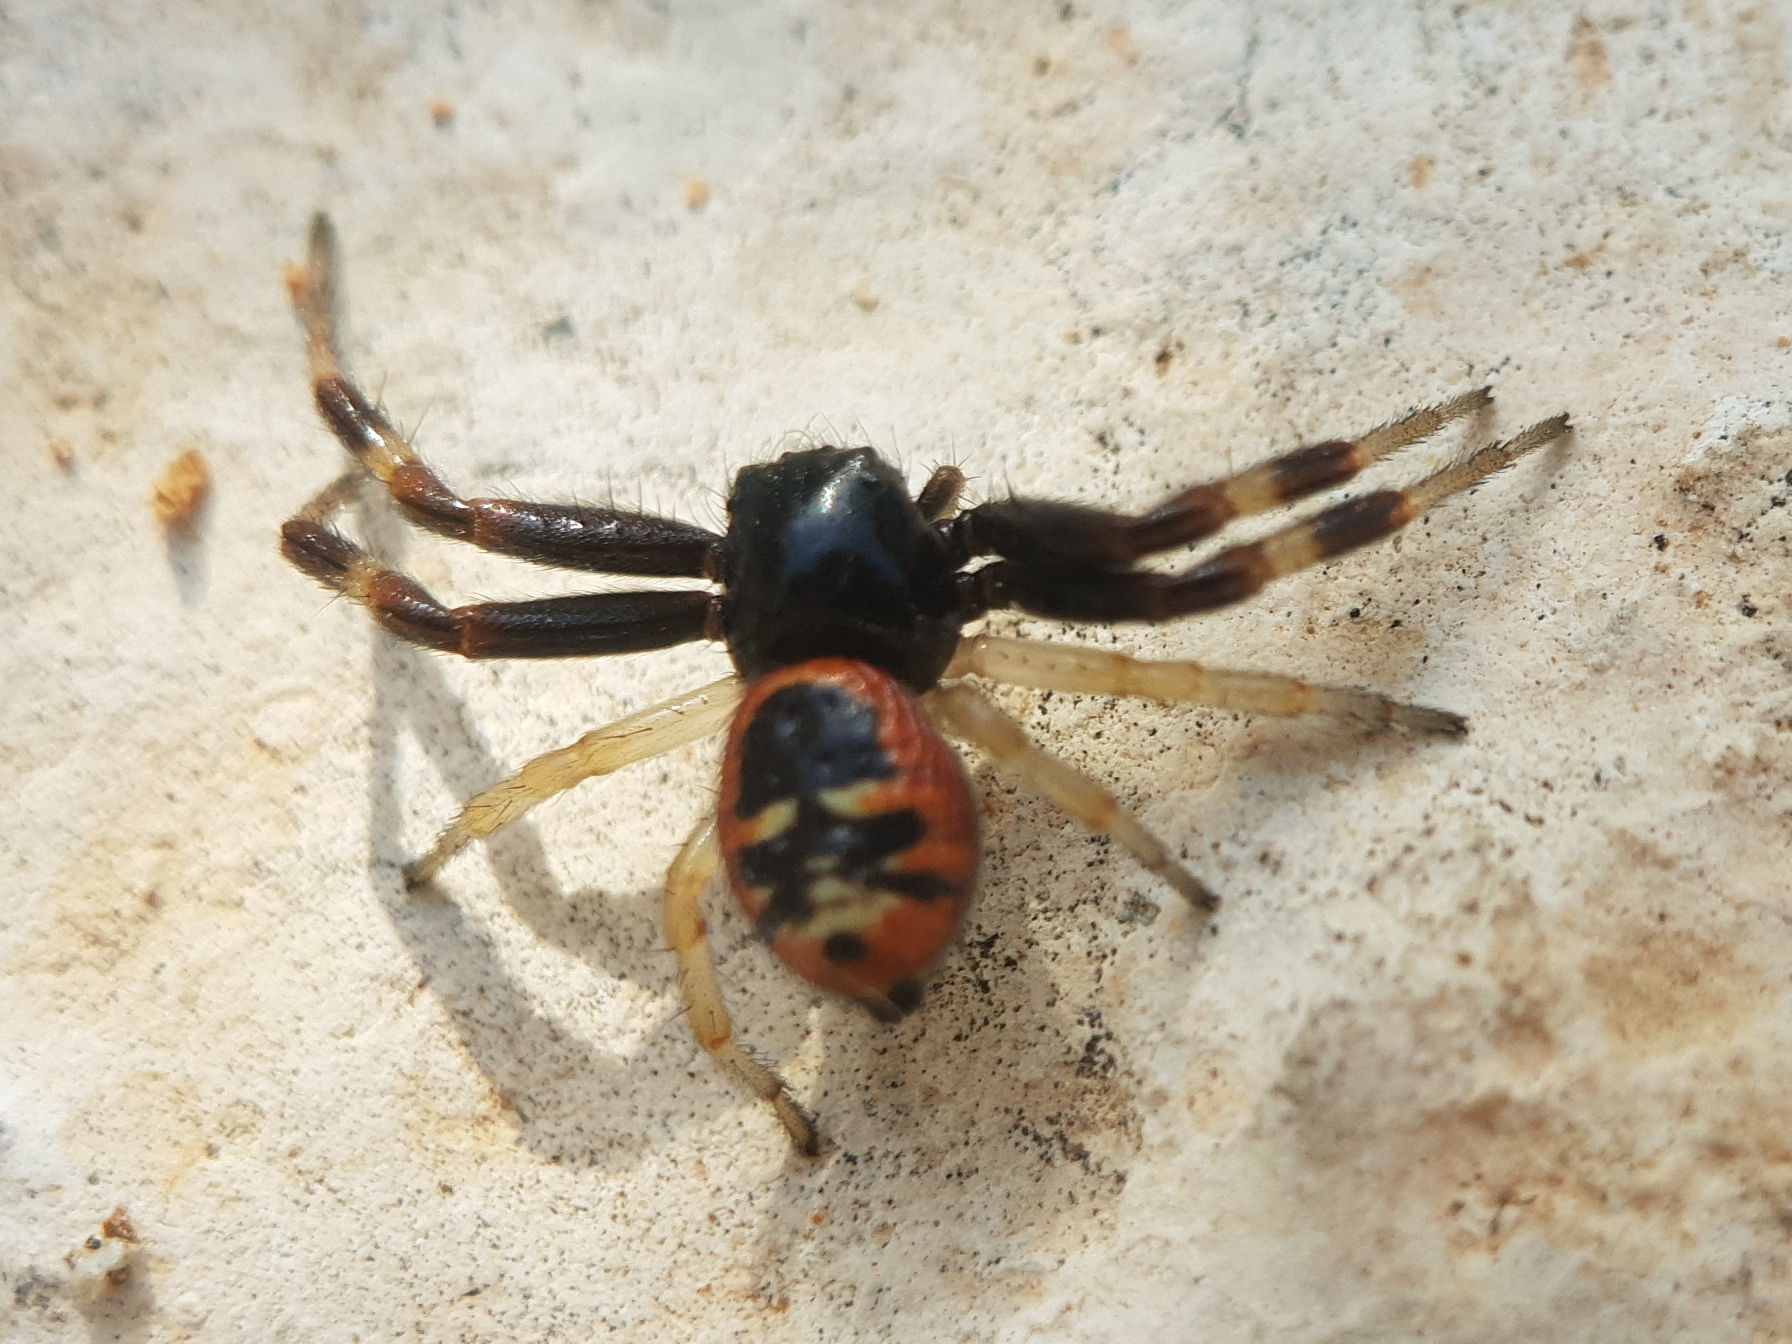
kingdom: Animalia
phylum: Arthropoda
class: Arachnida
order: Araneae
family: Thomisidae
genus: Synema
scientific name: Synema globosum
